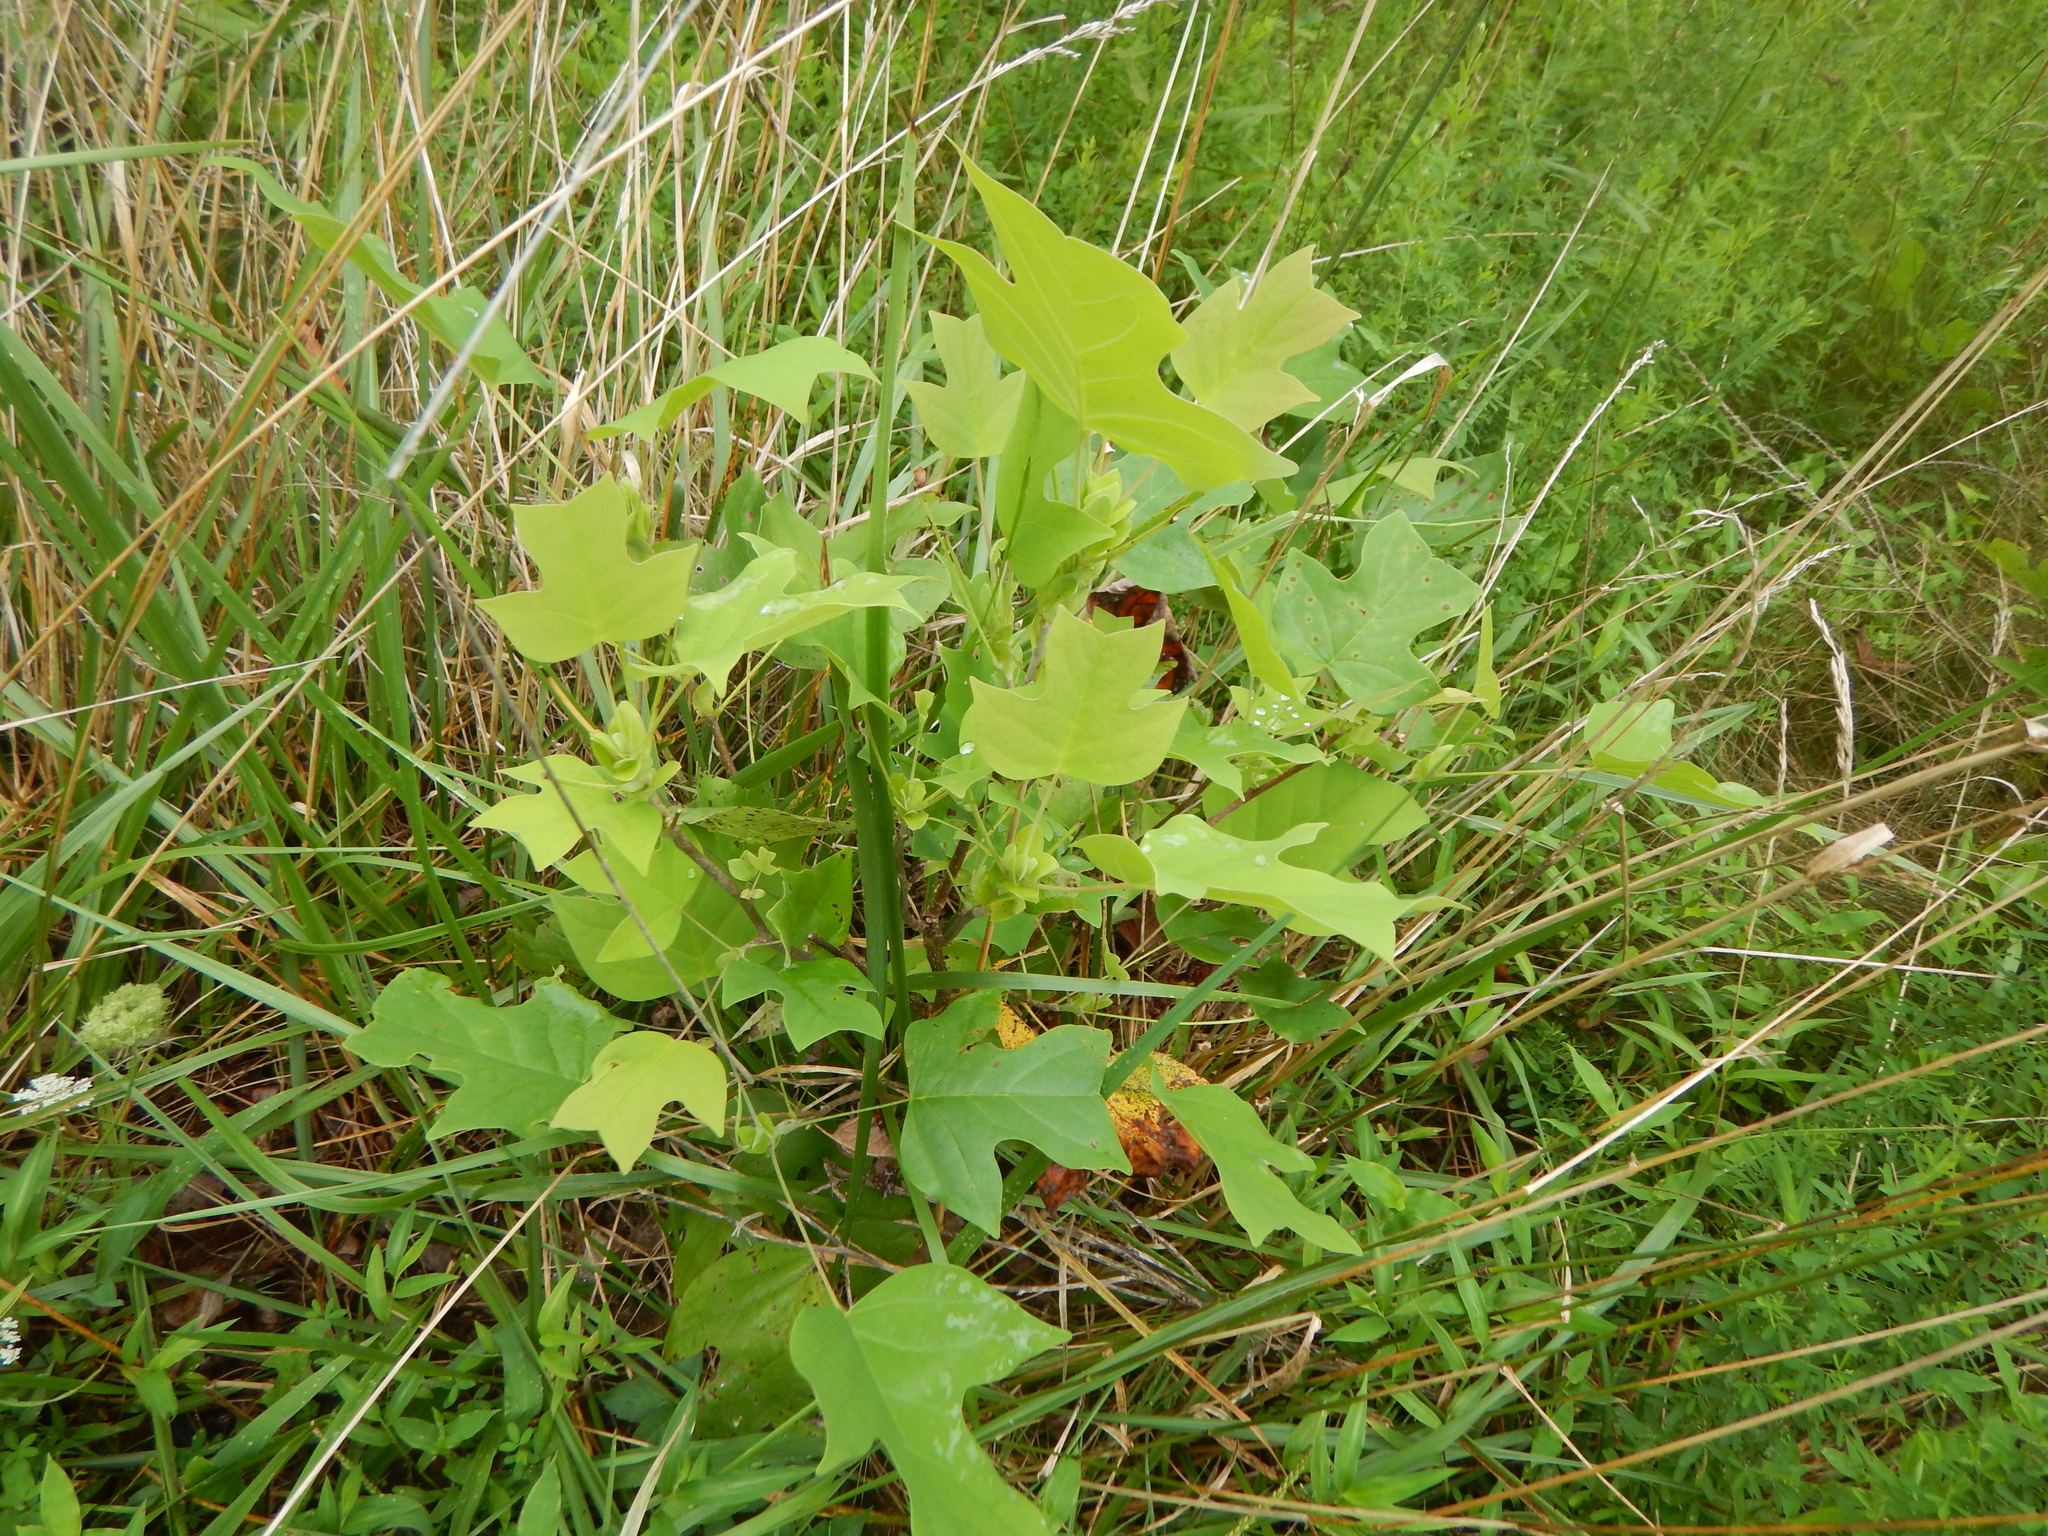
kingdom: Plantae
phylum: Tracheophyta
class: Magnoliopsida
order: Magnoliales
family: Magnoliaceae
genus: Liriodendron
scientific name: Liriodendron tulipifera
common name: Tulip tree
